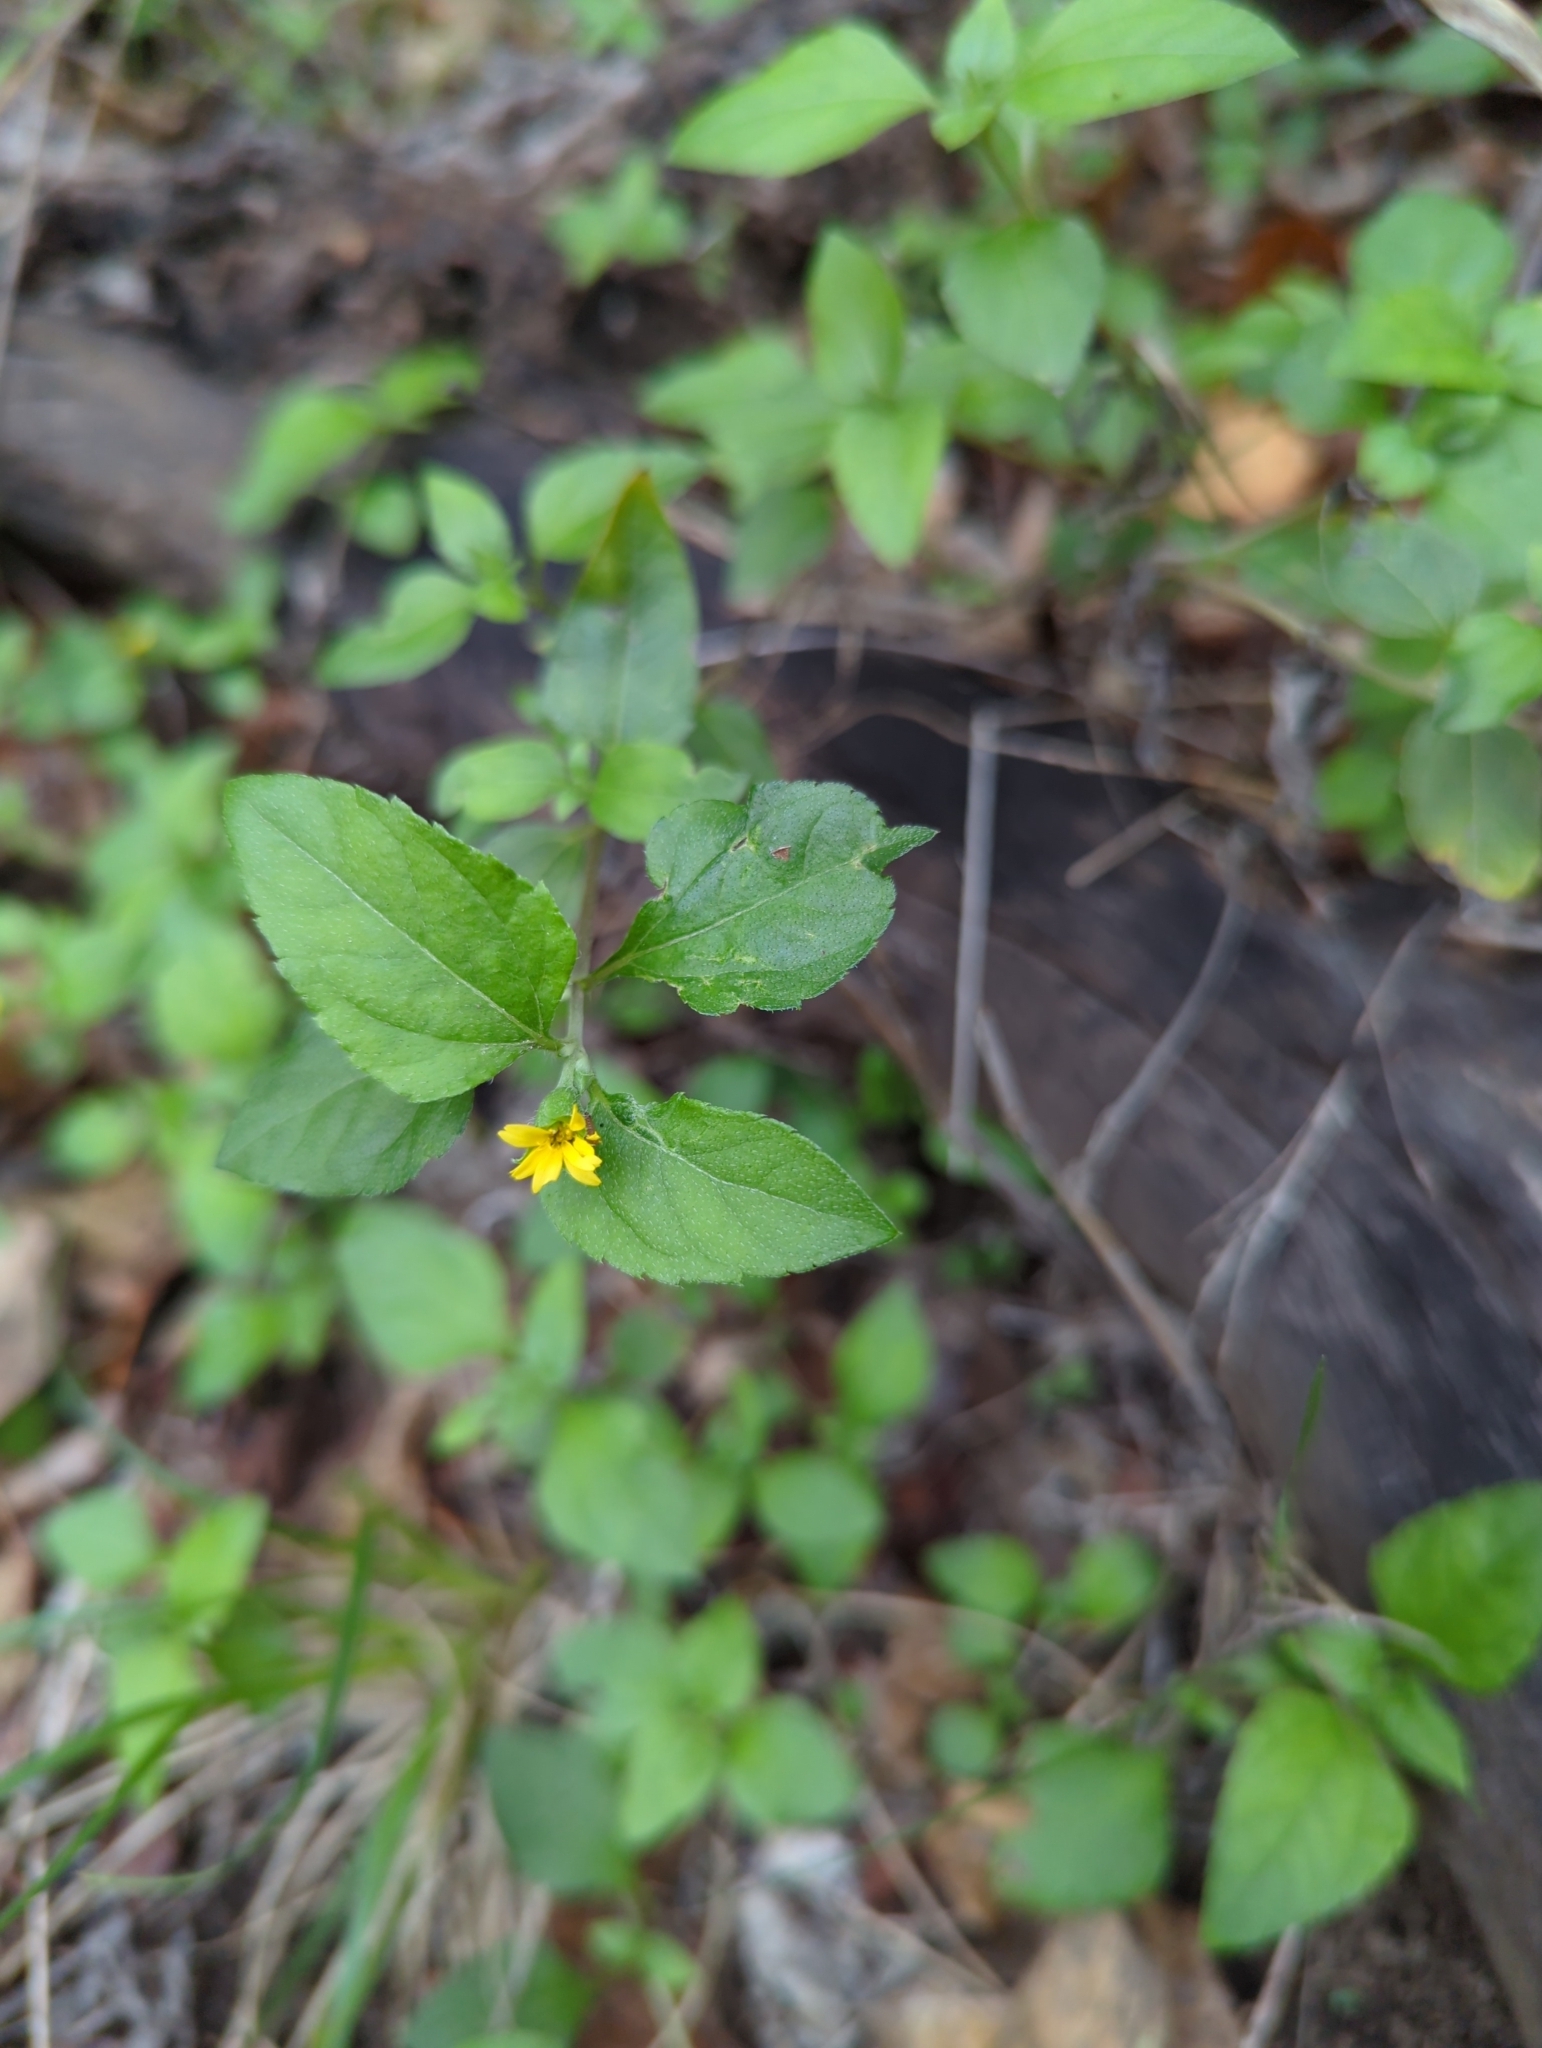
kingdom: Plantae
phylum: Tracheophyta
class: Magnoliopsida
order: Asterales
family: Asteraceae
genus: Calyptocarpus
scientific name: Calyptocarpus vialis
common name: Straggler daisy
